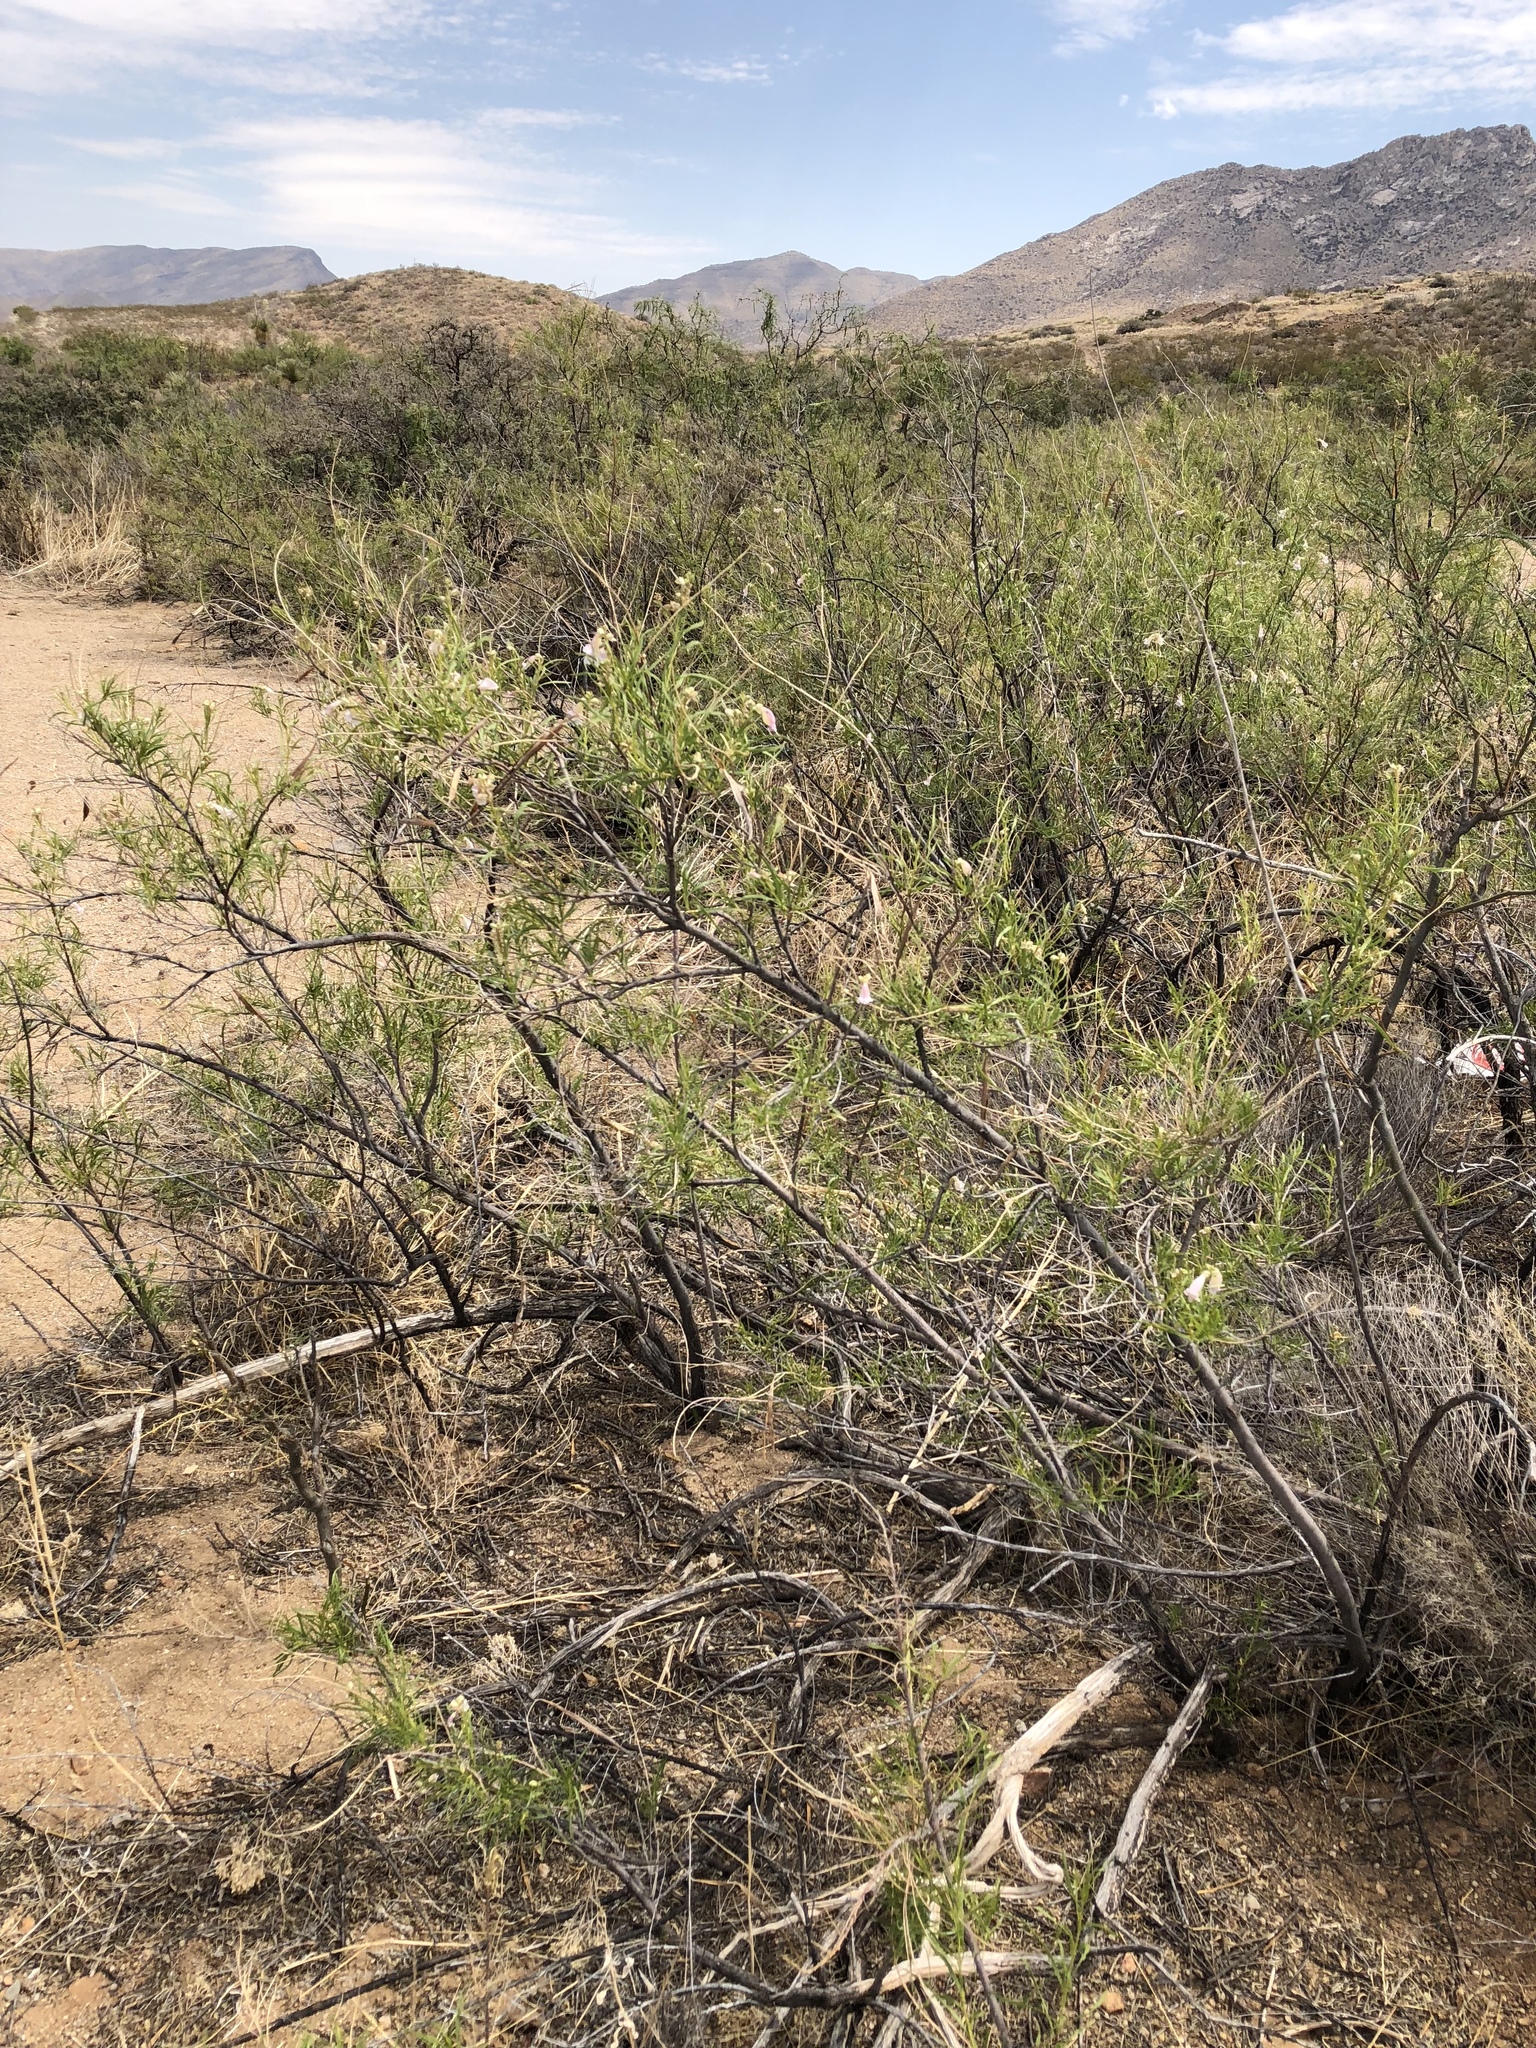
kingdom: Plantae
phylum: Tracheophyta
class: Magnoliopsida
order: Lamiales
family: Bignoniaceae
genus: Chilopsis
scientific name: Chilopsis linearis
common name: Desert-willow
